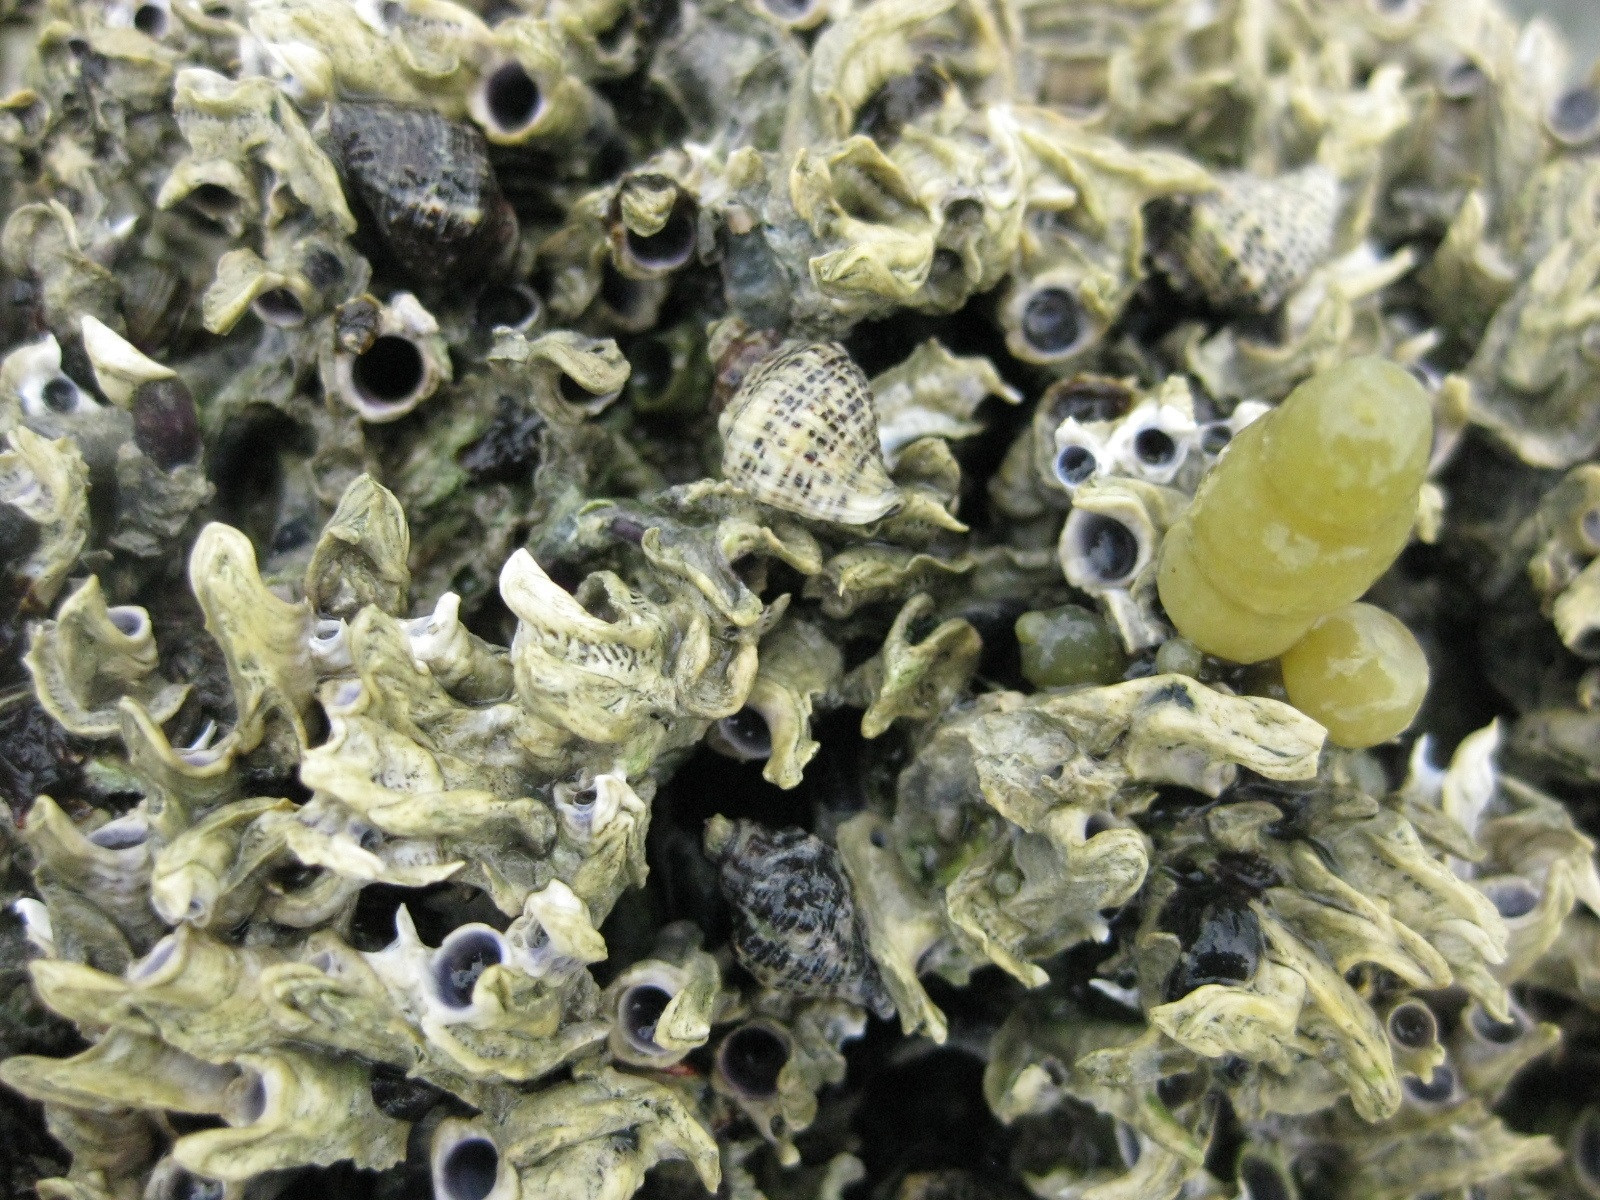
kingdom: Animalia
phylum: Mollusca
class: Gastropoda
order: Neogastropoda
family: Muricidae
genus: Haustrum
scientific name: Haustrum scobina
